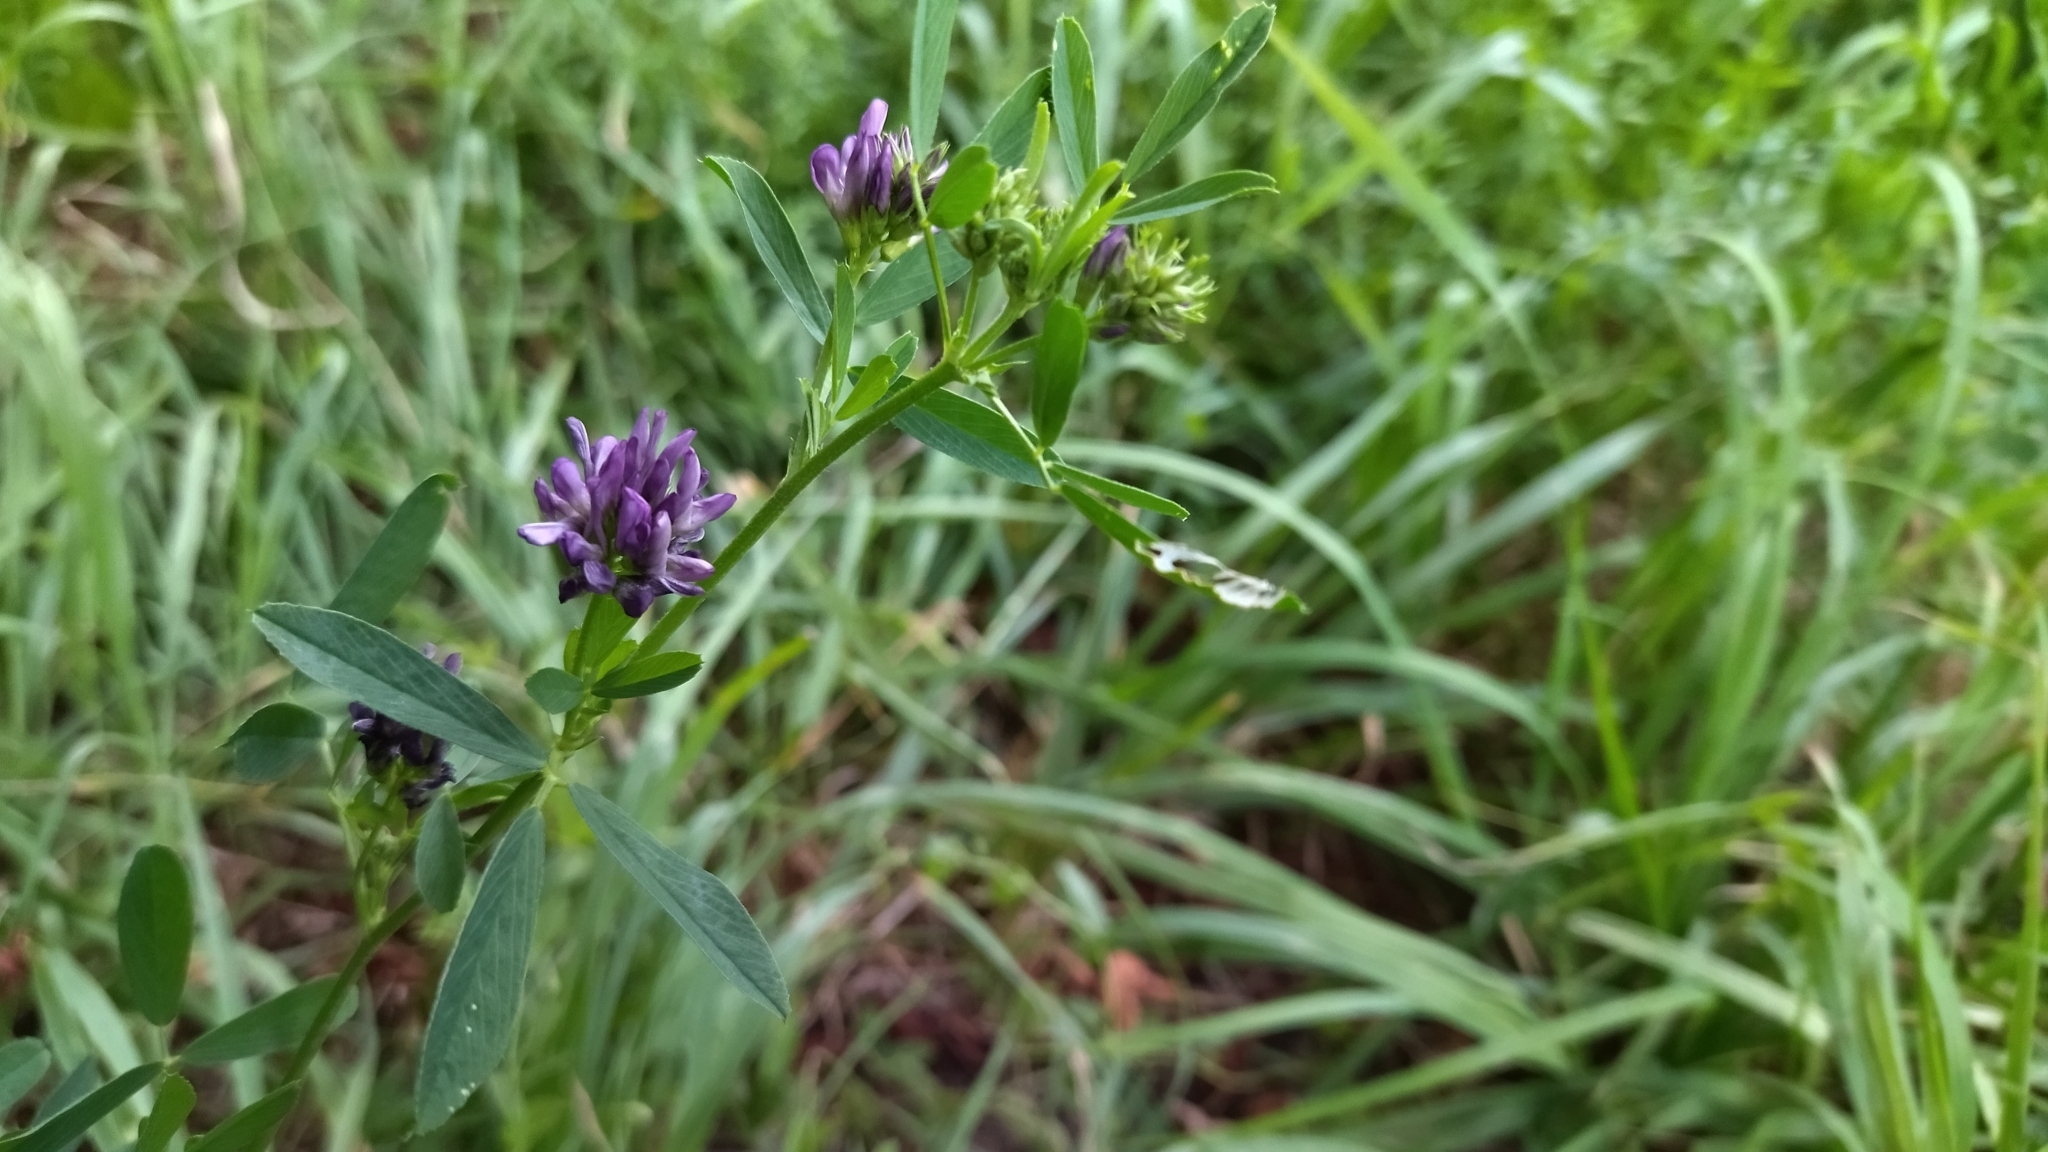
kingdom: Plantae
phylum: Tracheophyta
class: Magnoliopsida
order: Fabales
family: Fabaceae
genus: Medicago
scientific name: Medicago sativa
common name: Alfalfa
